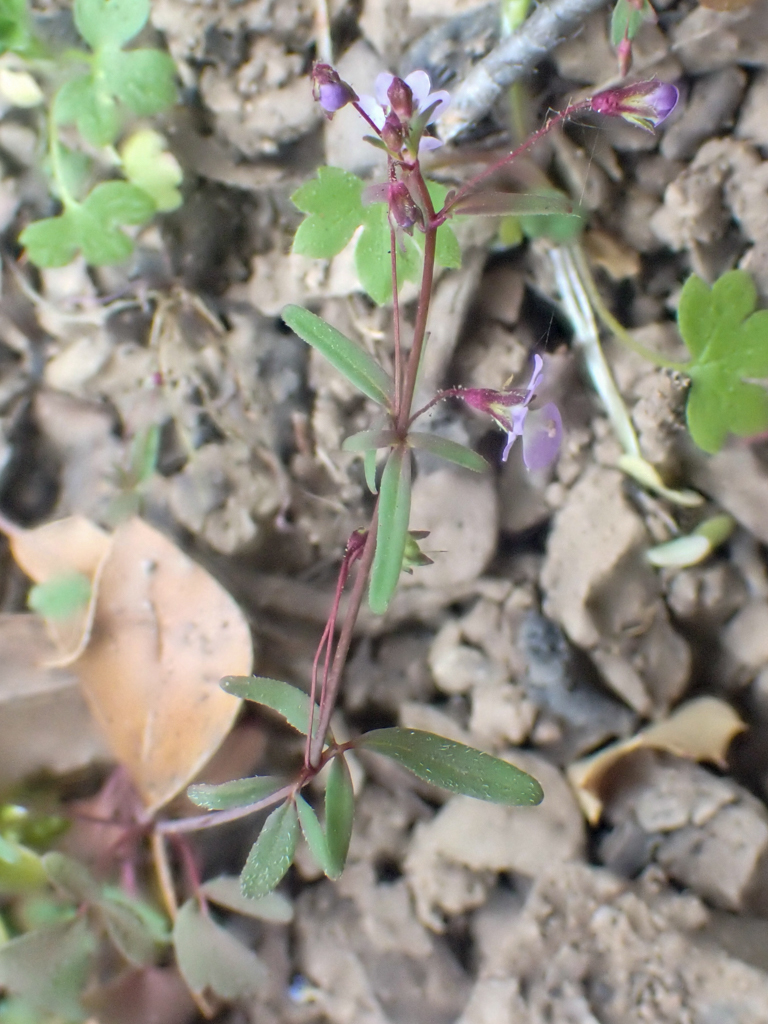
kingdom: Plantae
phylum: Tracheophyta
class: Magnoliopsida
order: Lamiales
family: Plantaginaceae
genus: Tonella
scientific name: Tonella tenella
